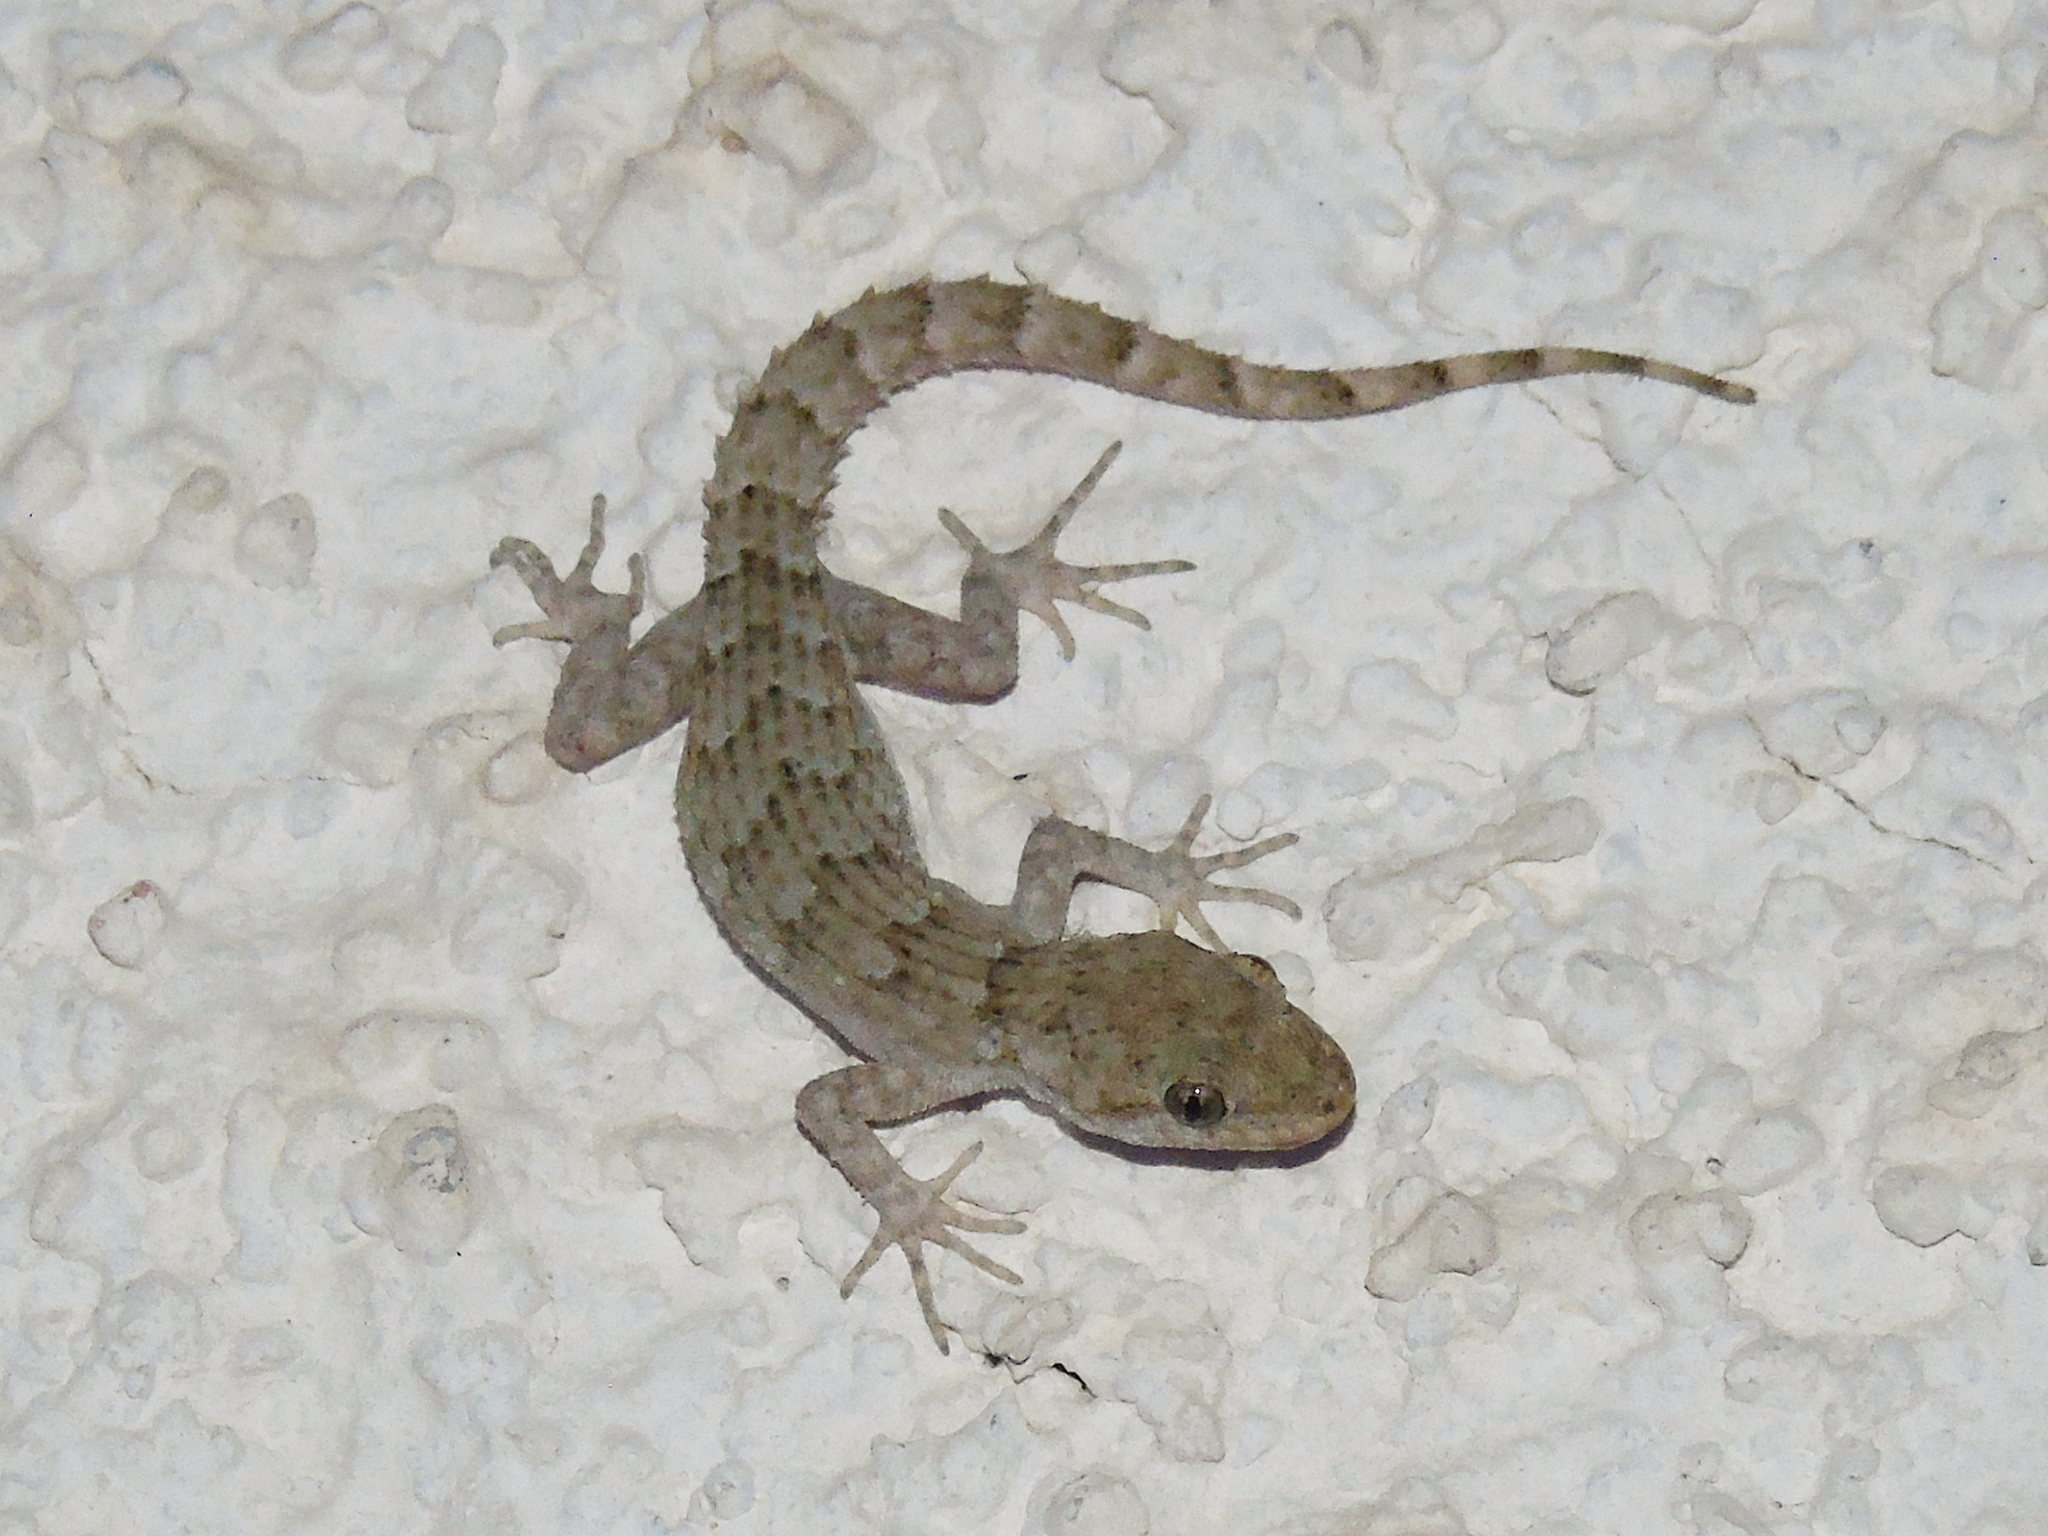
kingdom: Animalia
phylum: Chordata
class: Squamata
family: Gekkonidae
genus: Mediodactylus
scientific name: Mediodactylus kotschyi
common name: Kotschy's gecko
